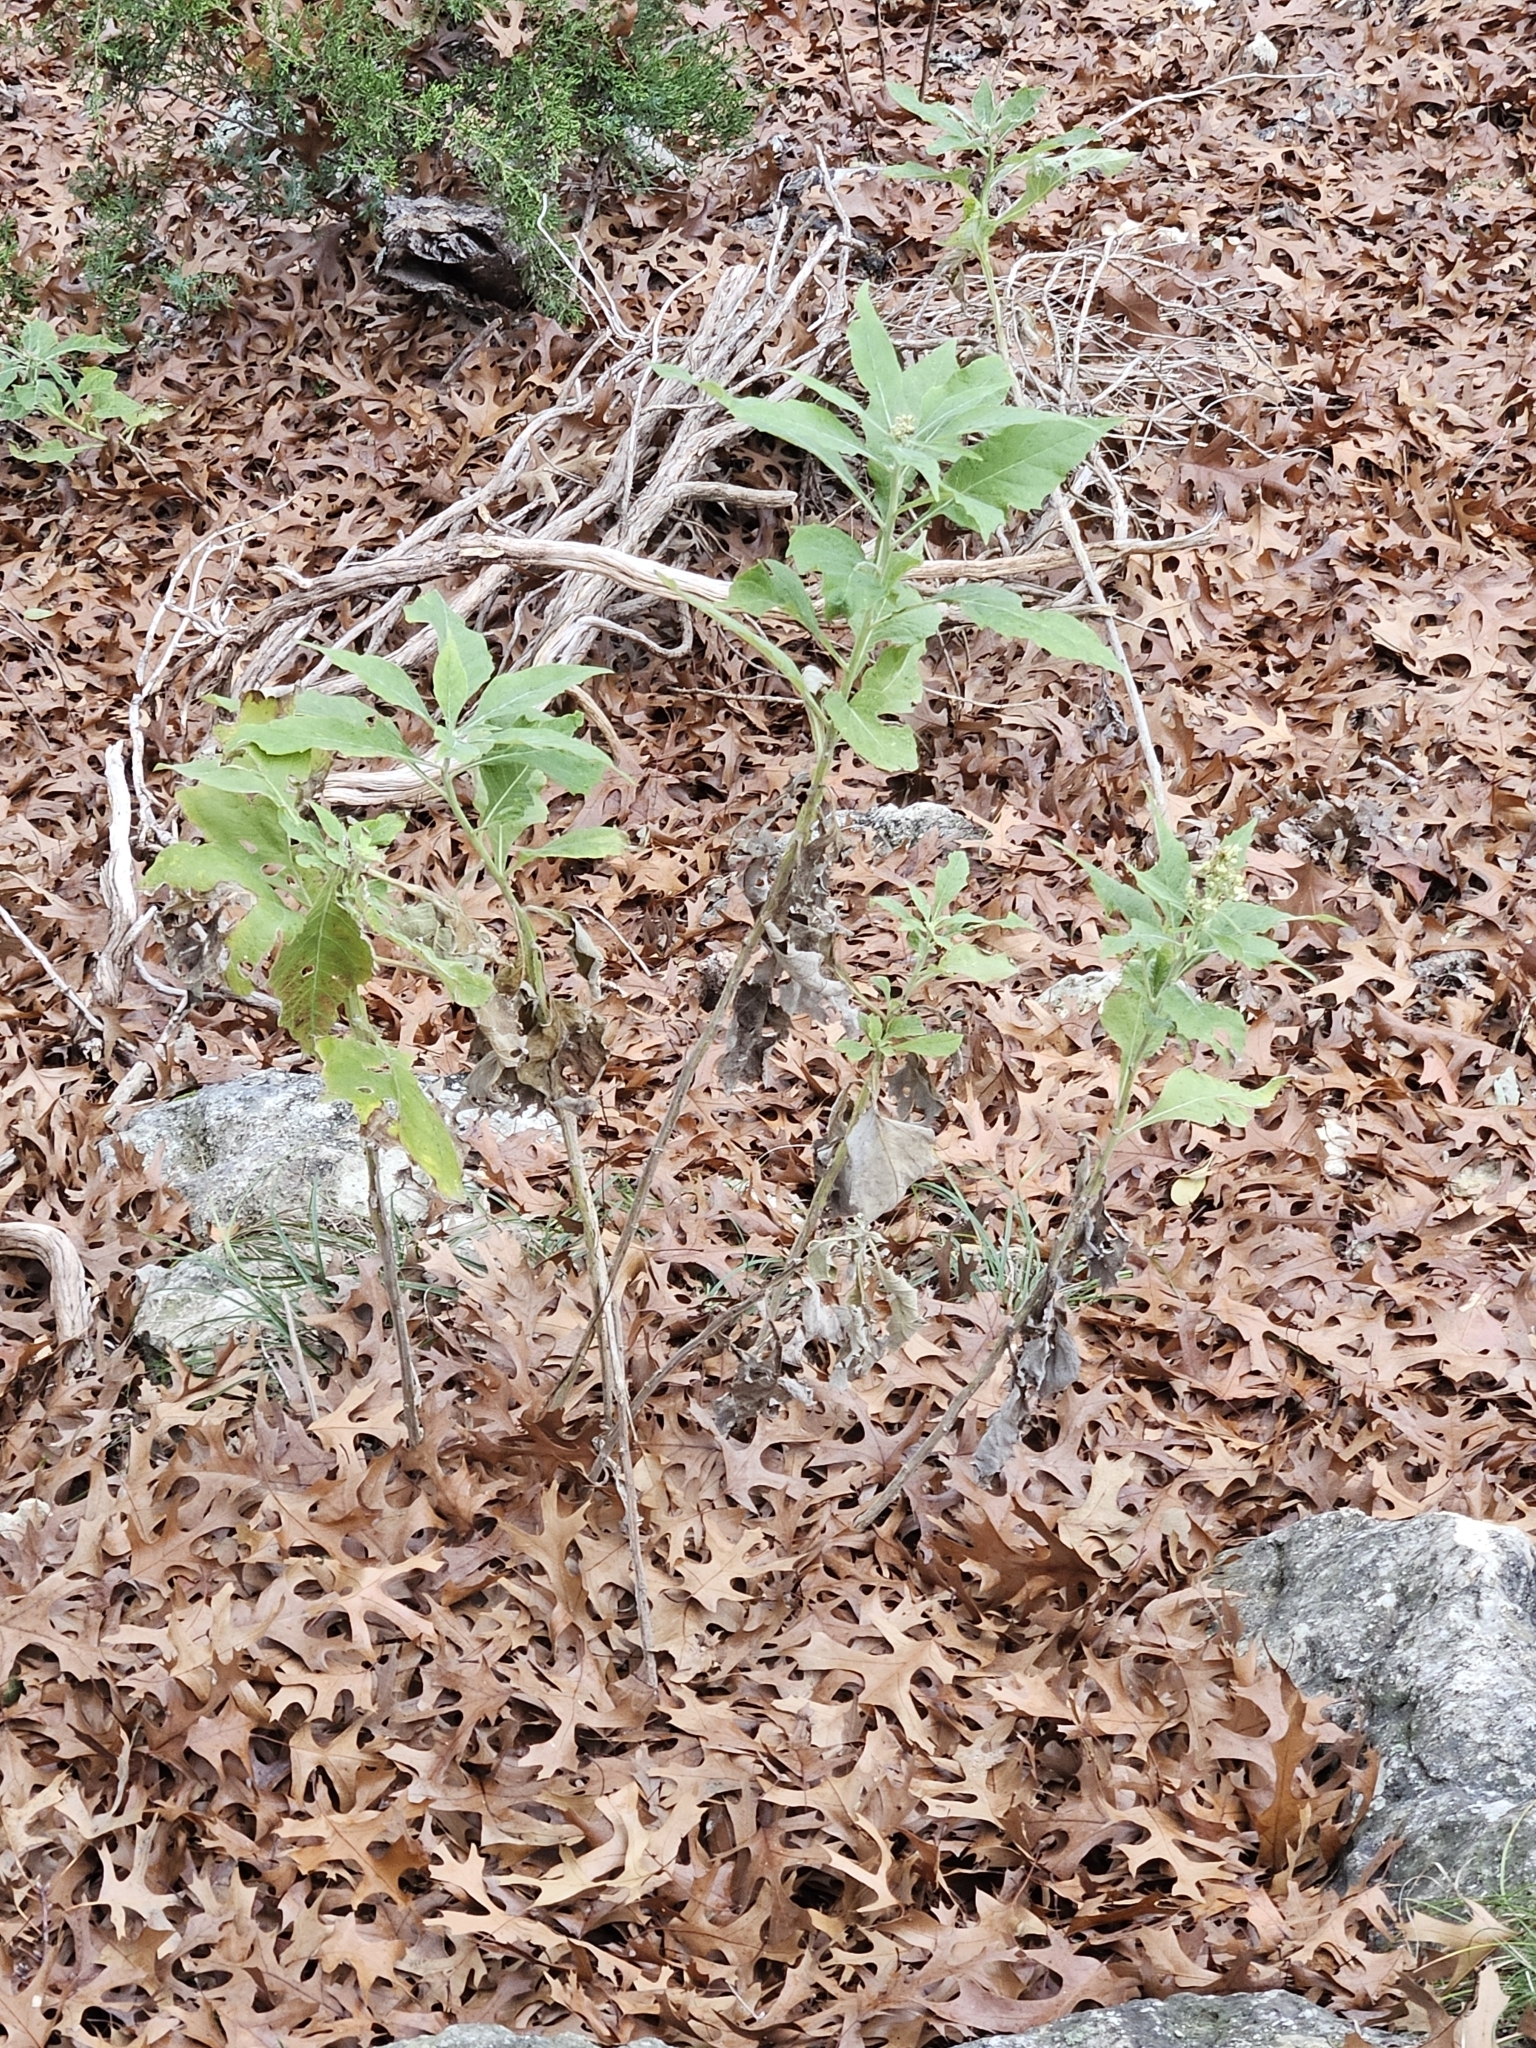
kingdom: Plantae
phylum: Tracheophyta
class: Magnoliopsida
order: Asterales
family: Asteraceae
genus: Verbesina
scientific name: Verbesina virginica
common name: Frostweed
